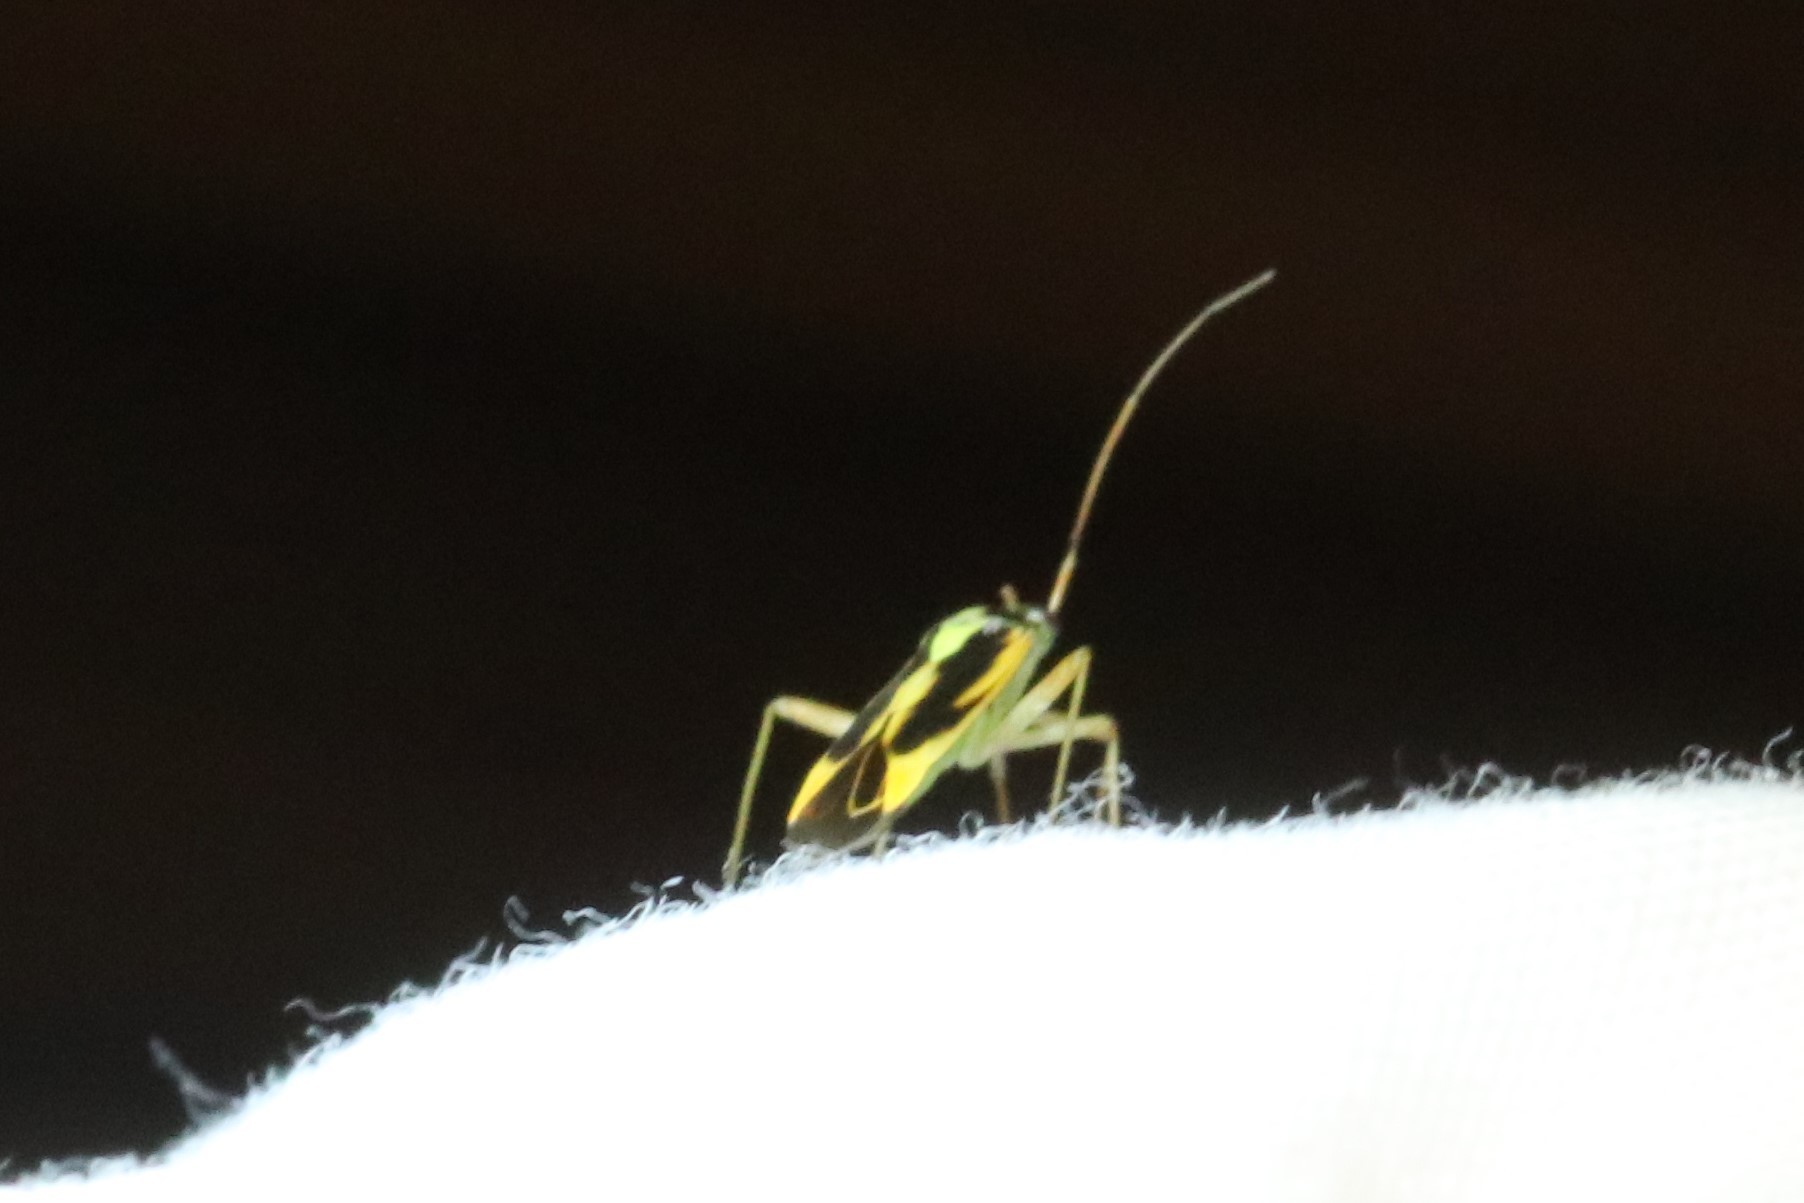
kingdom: Animalia
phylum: Arthropoda
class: Insecta
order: Hemiptera
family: Miridae
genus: Stenotus
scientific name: Stenotus binotatus
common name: Plant bug
